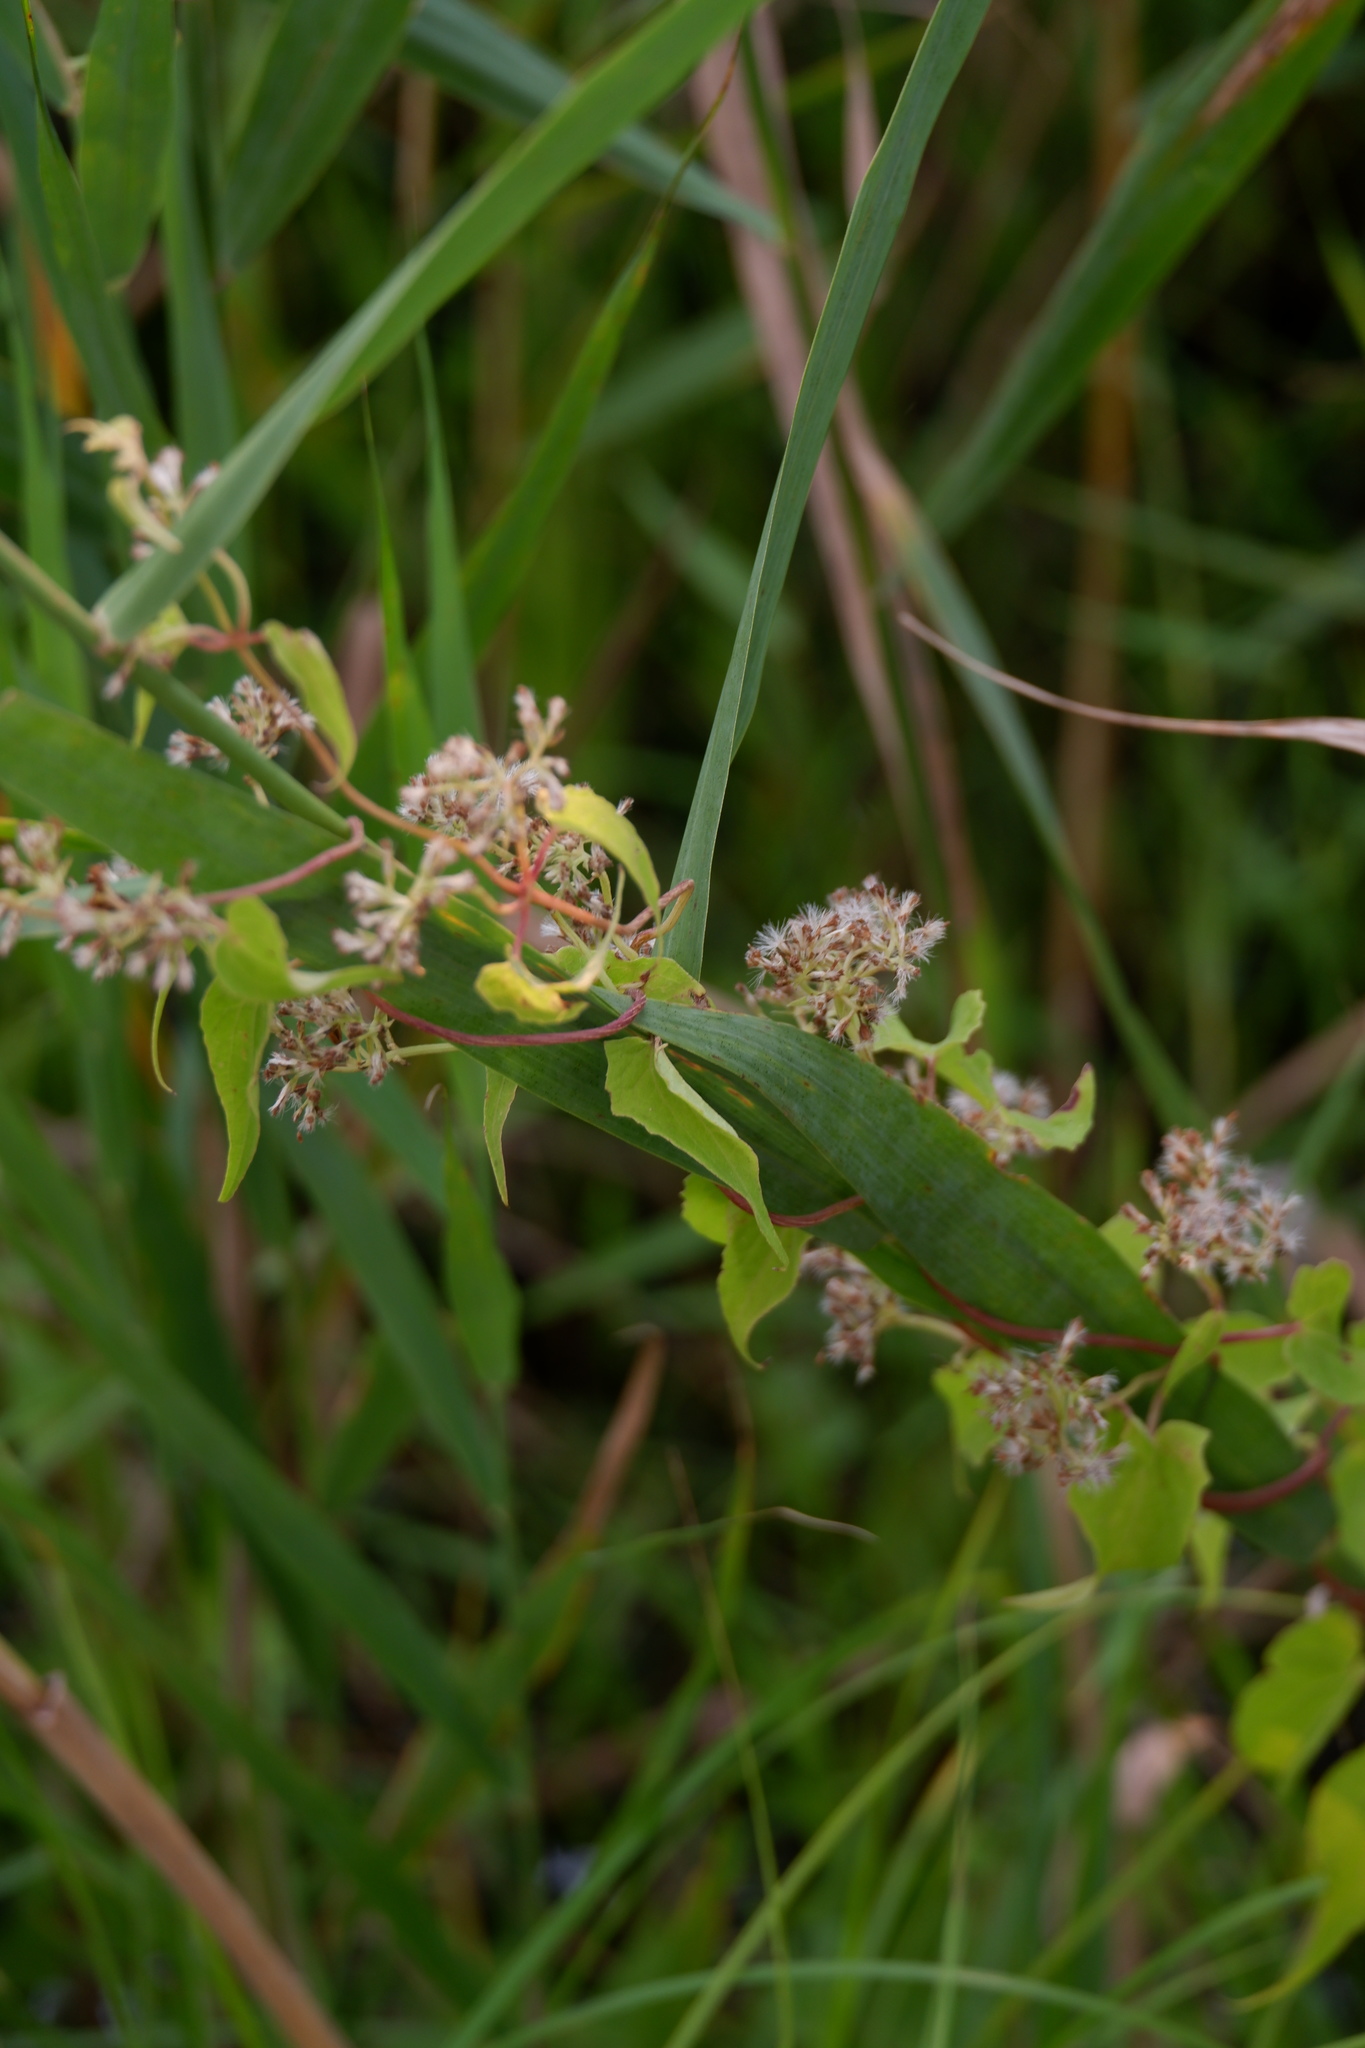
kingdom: Plantae
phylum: Tracheophyta
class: Magnoliopsida
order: Asterales
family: Asteraceae
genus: Mikania
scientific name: Mikania scandens
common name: Climbing hempvine
